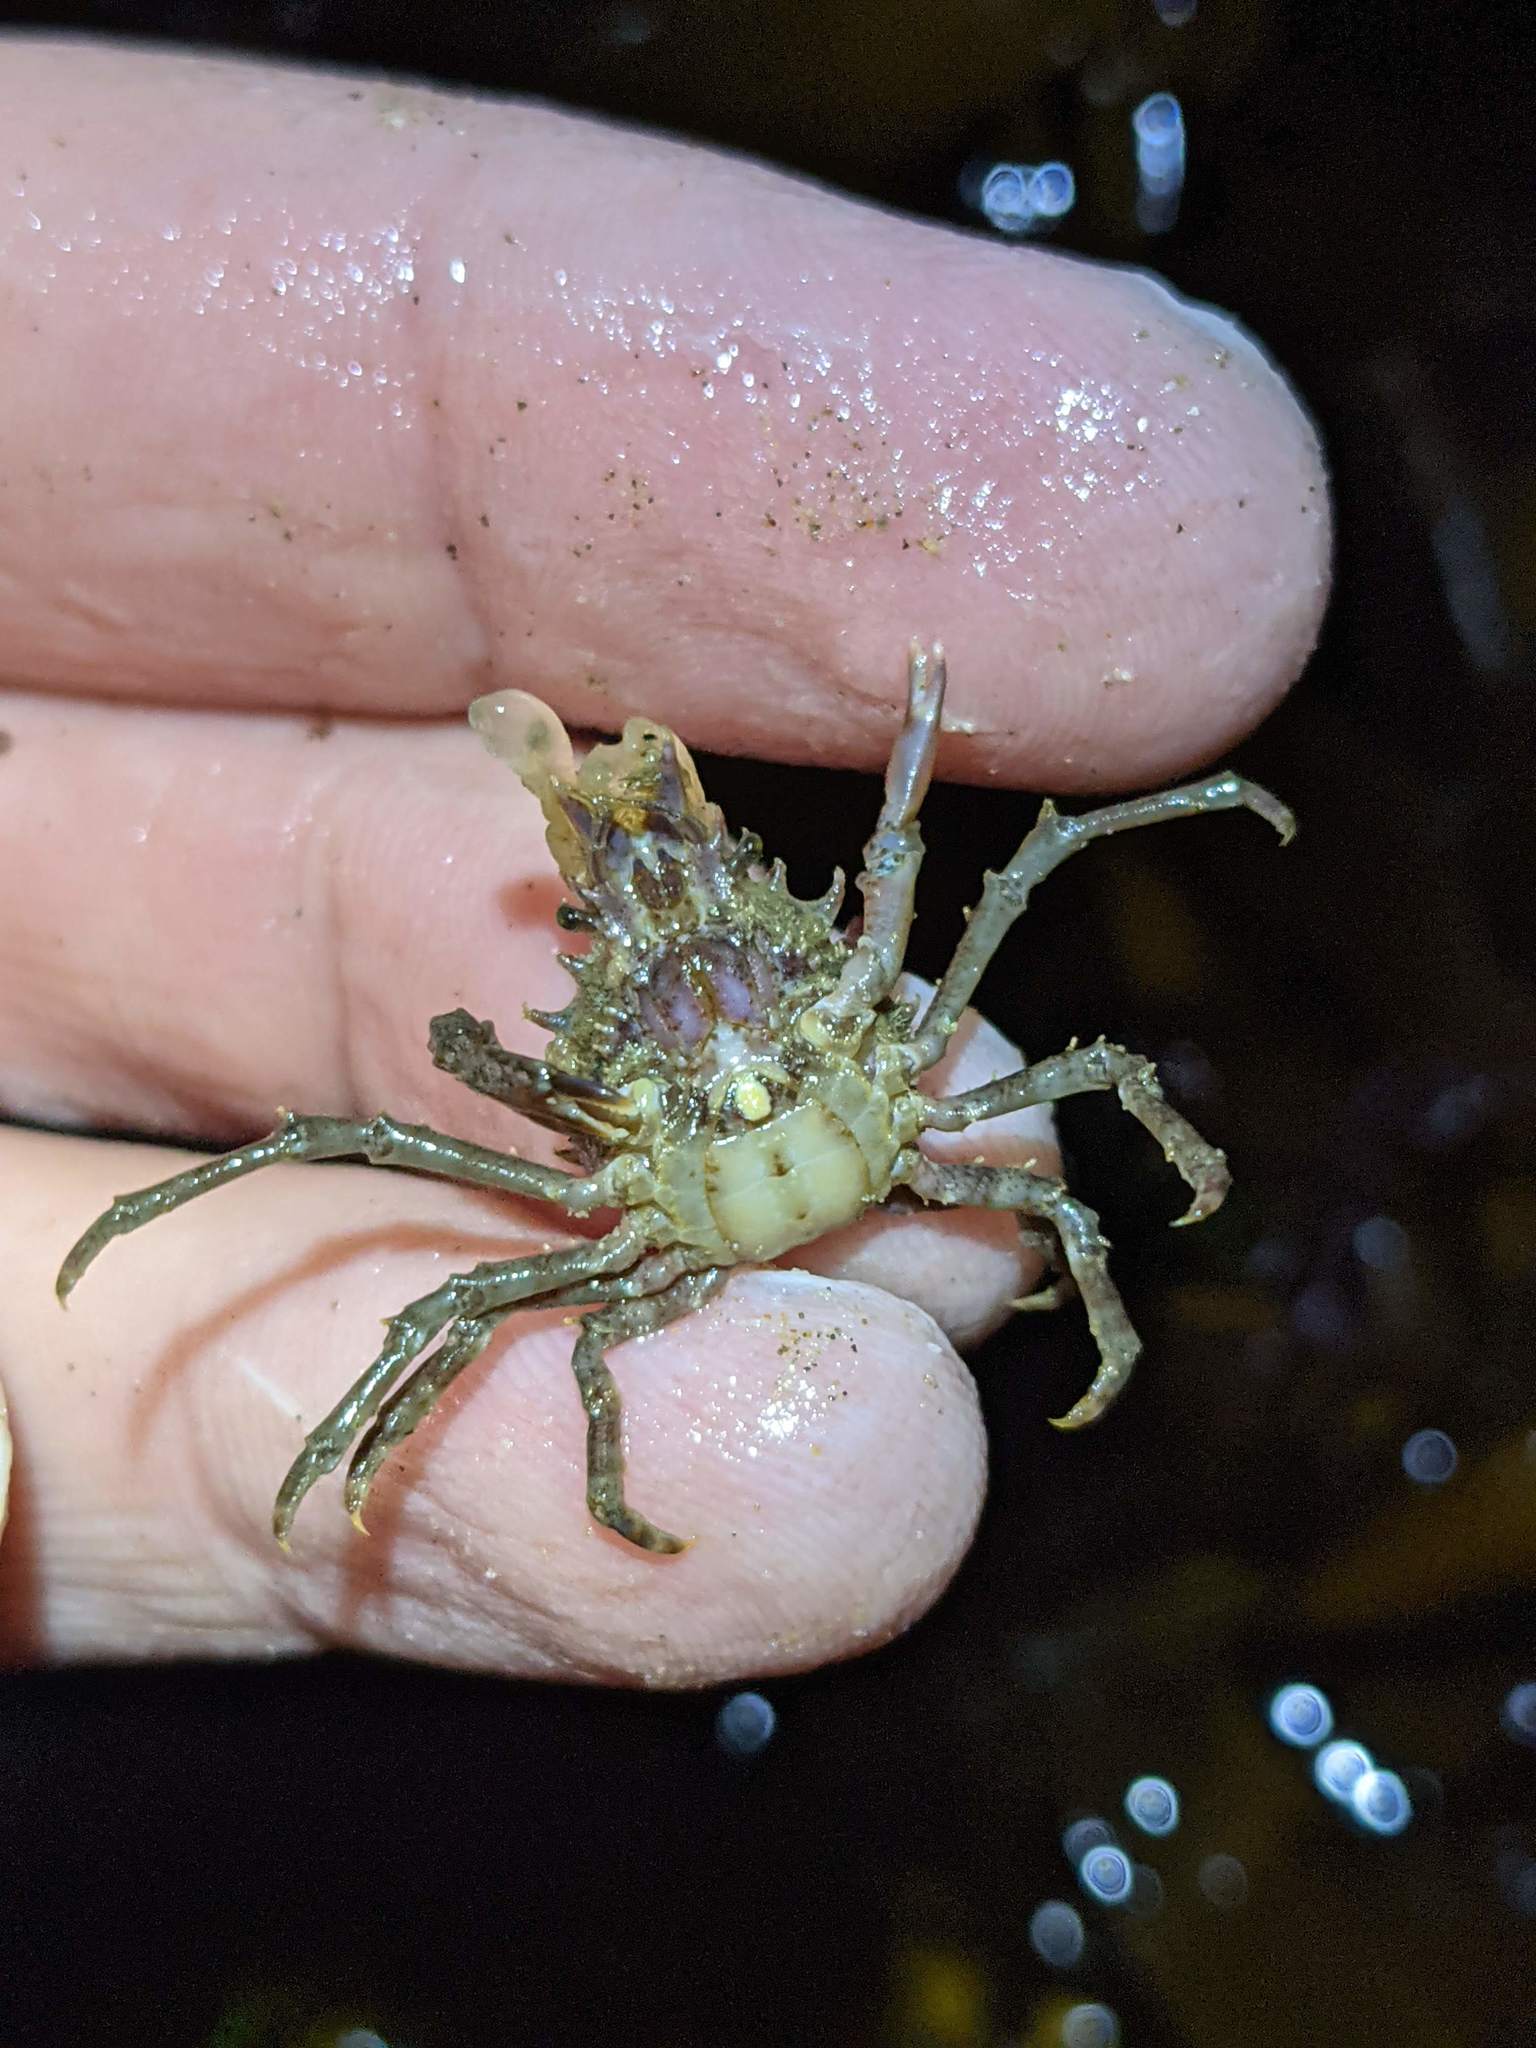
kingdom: Animalia
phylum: Arthropoda
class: Malacostraca
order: Decapoda
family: Epialtidae
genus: Pugettia
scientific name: Pugettia richii
